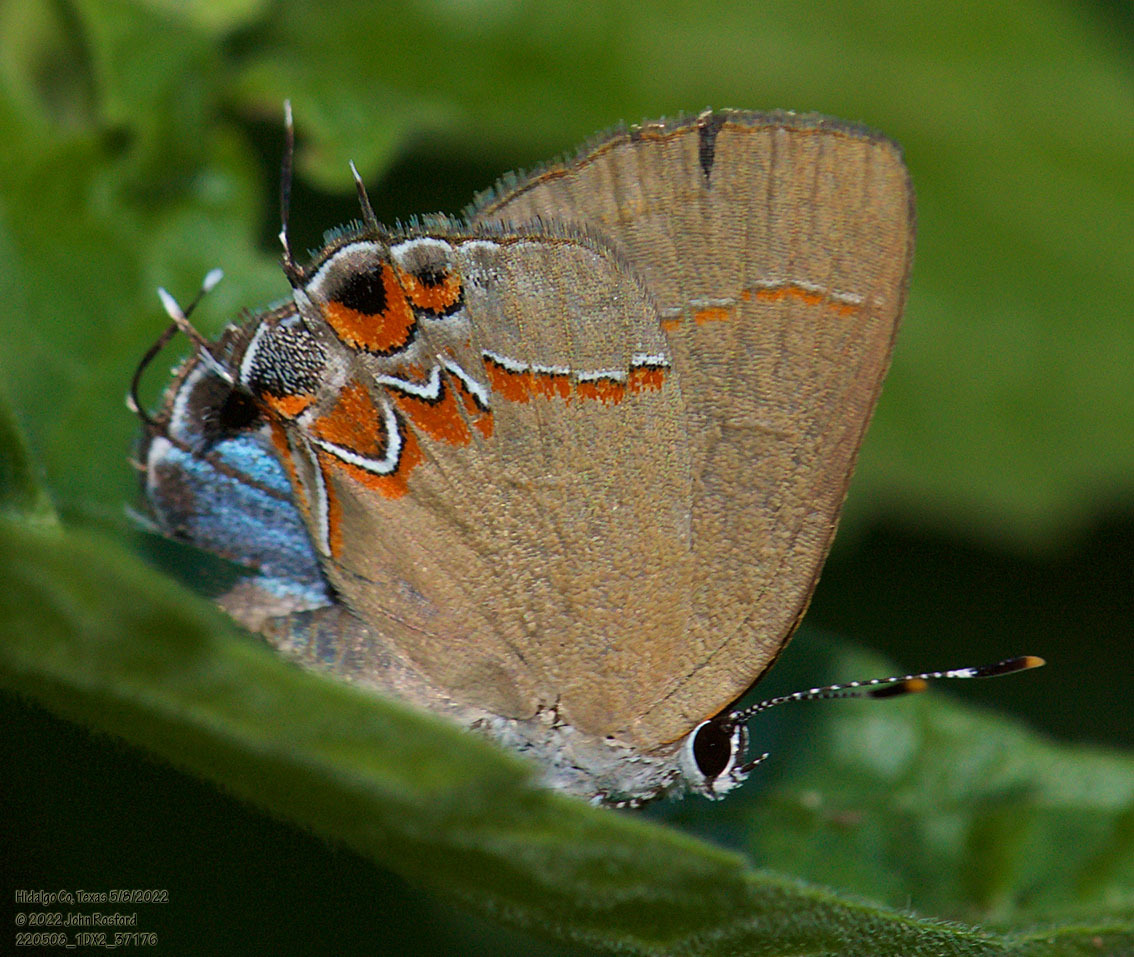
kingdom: Animalia
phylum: Arthropoda
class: Insecta
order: Lepidoptera
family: Lycaenidae
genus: Calycopis
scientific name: Calycopis isobeon
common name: Dusky-blue groundstreak
